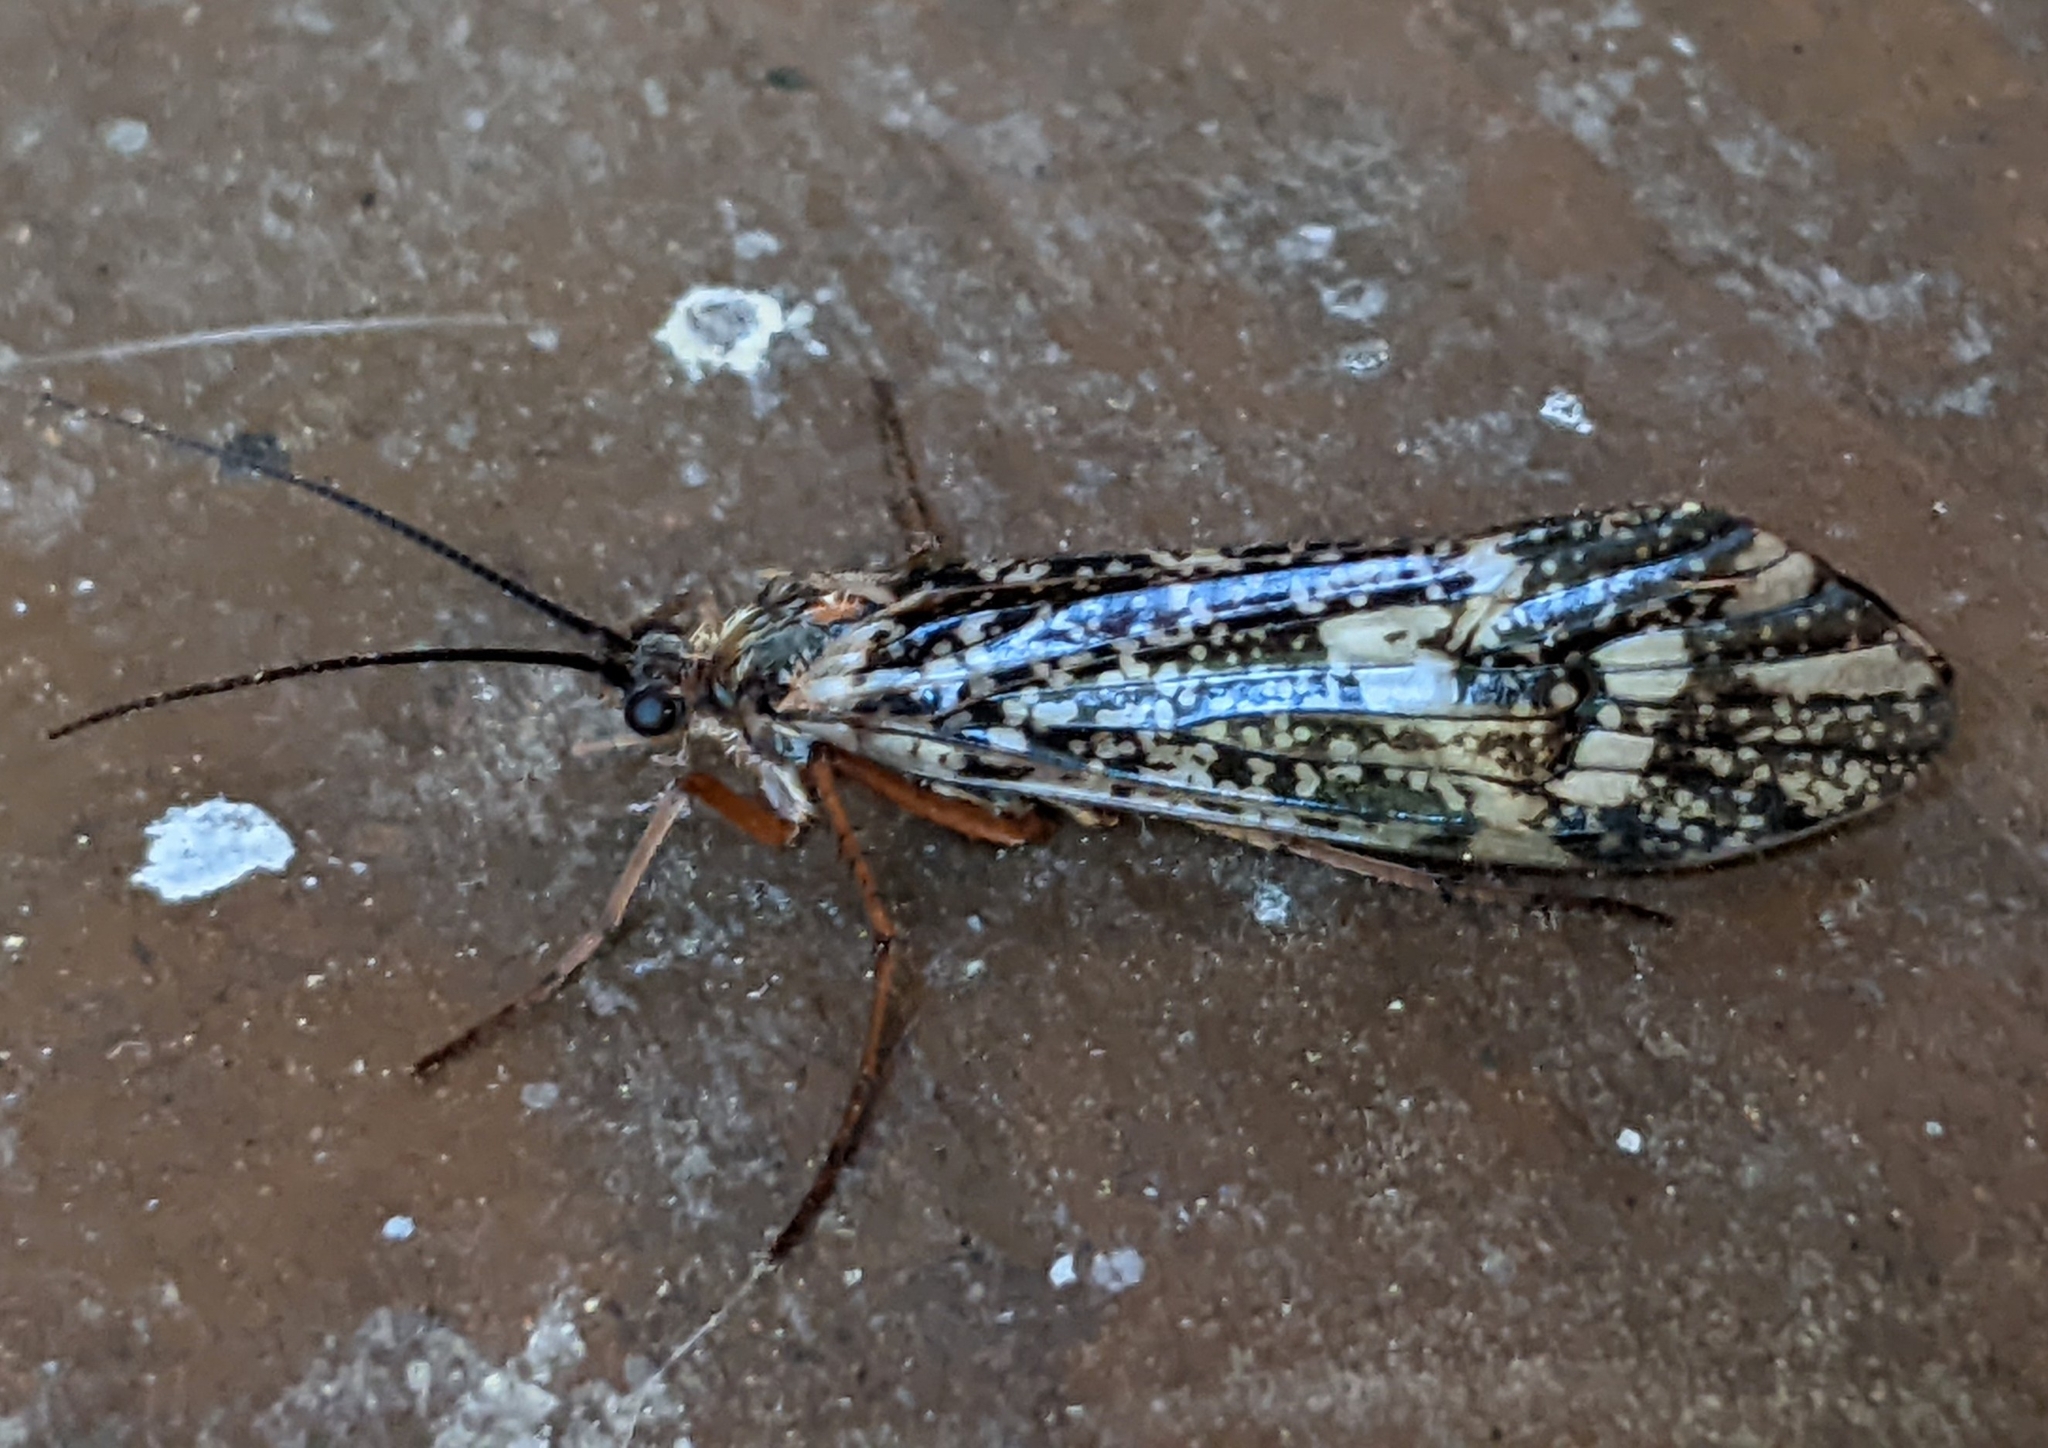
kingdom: Animalia
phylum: Arthropoda
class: Insecta
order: Trichoptera
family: Limnephilidae
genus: Clistoronia
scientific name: Clistoronia magnifica
